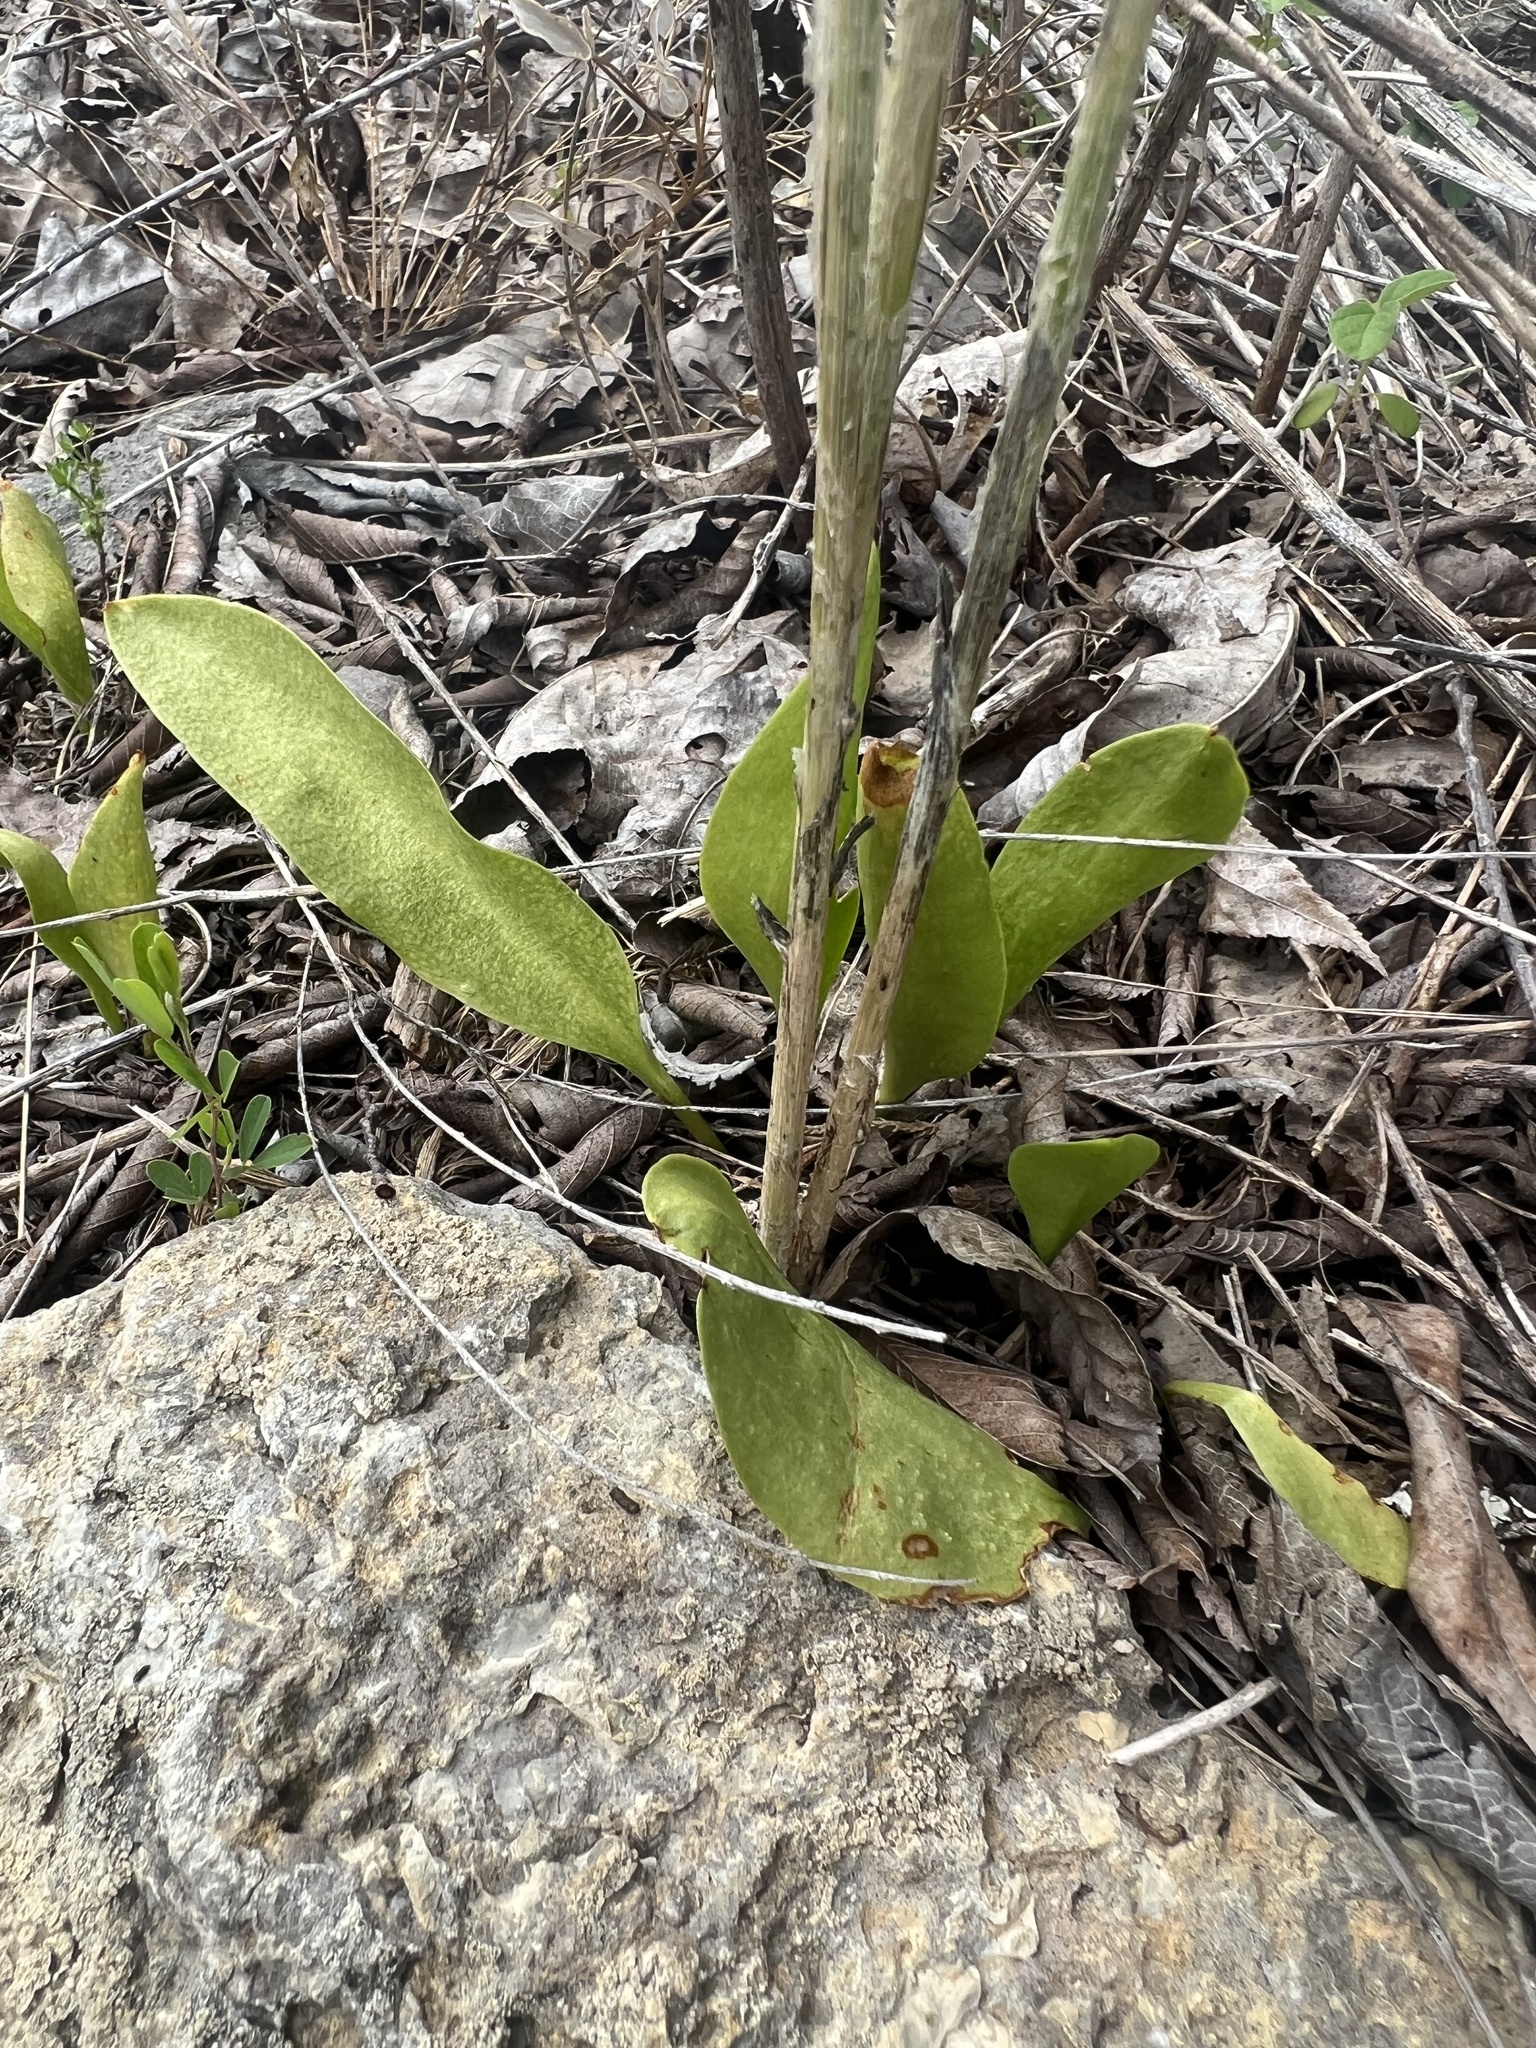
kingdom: Plantae
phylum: Tracheophyta
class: Polypodiopsida
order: Ophioglossales
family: Ophioglossaceae
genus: Ophioglossum
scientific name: Ophioglossum engelmannii
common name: Limestone adder's-tongue
